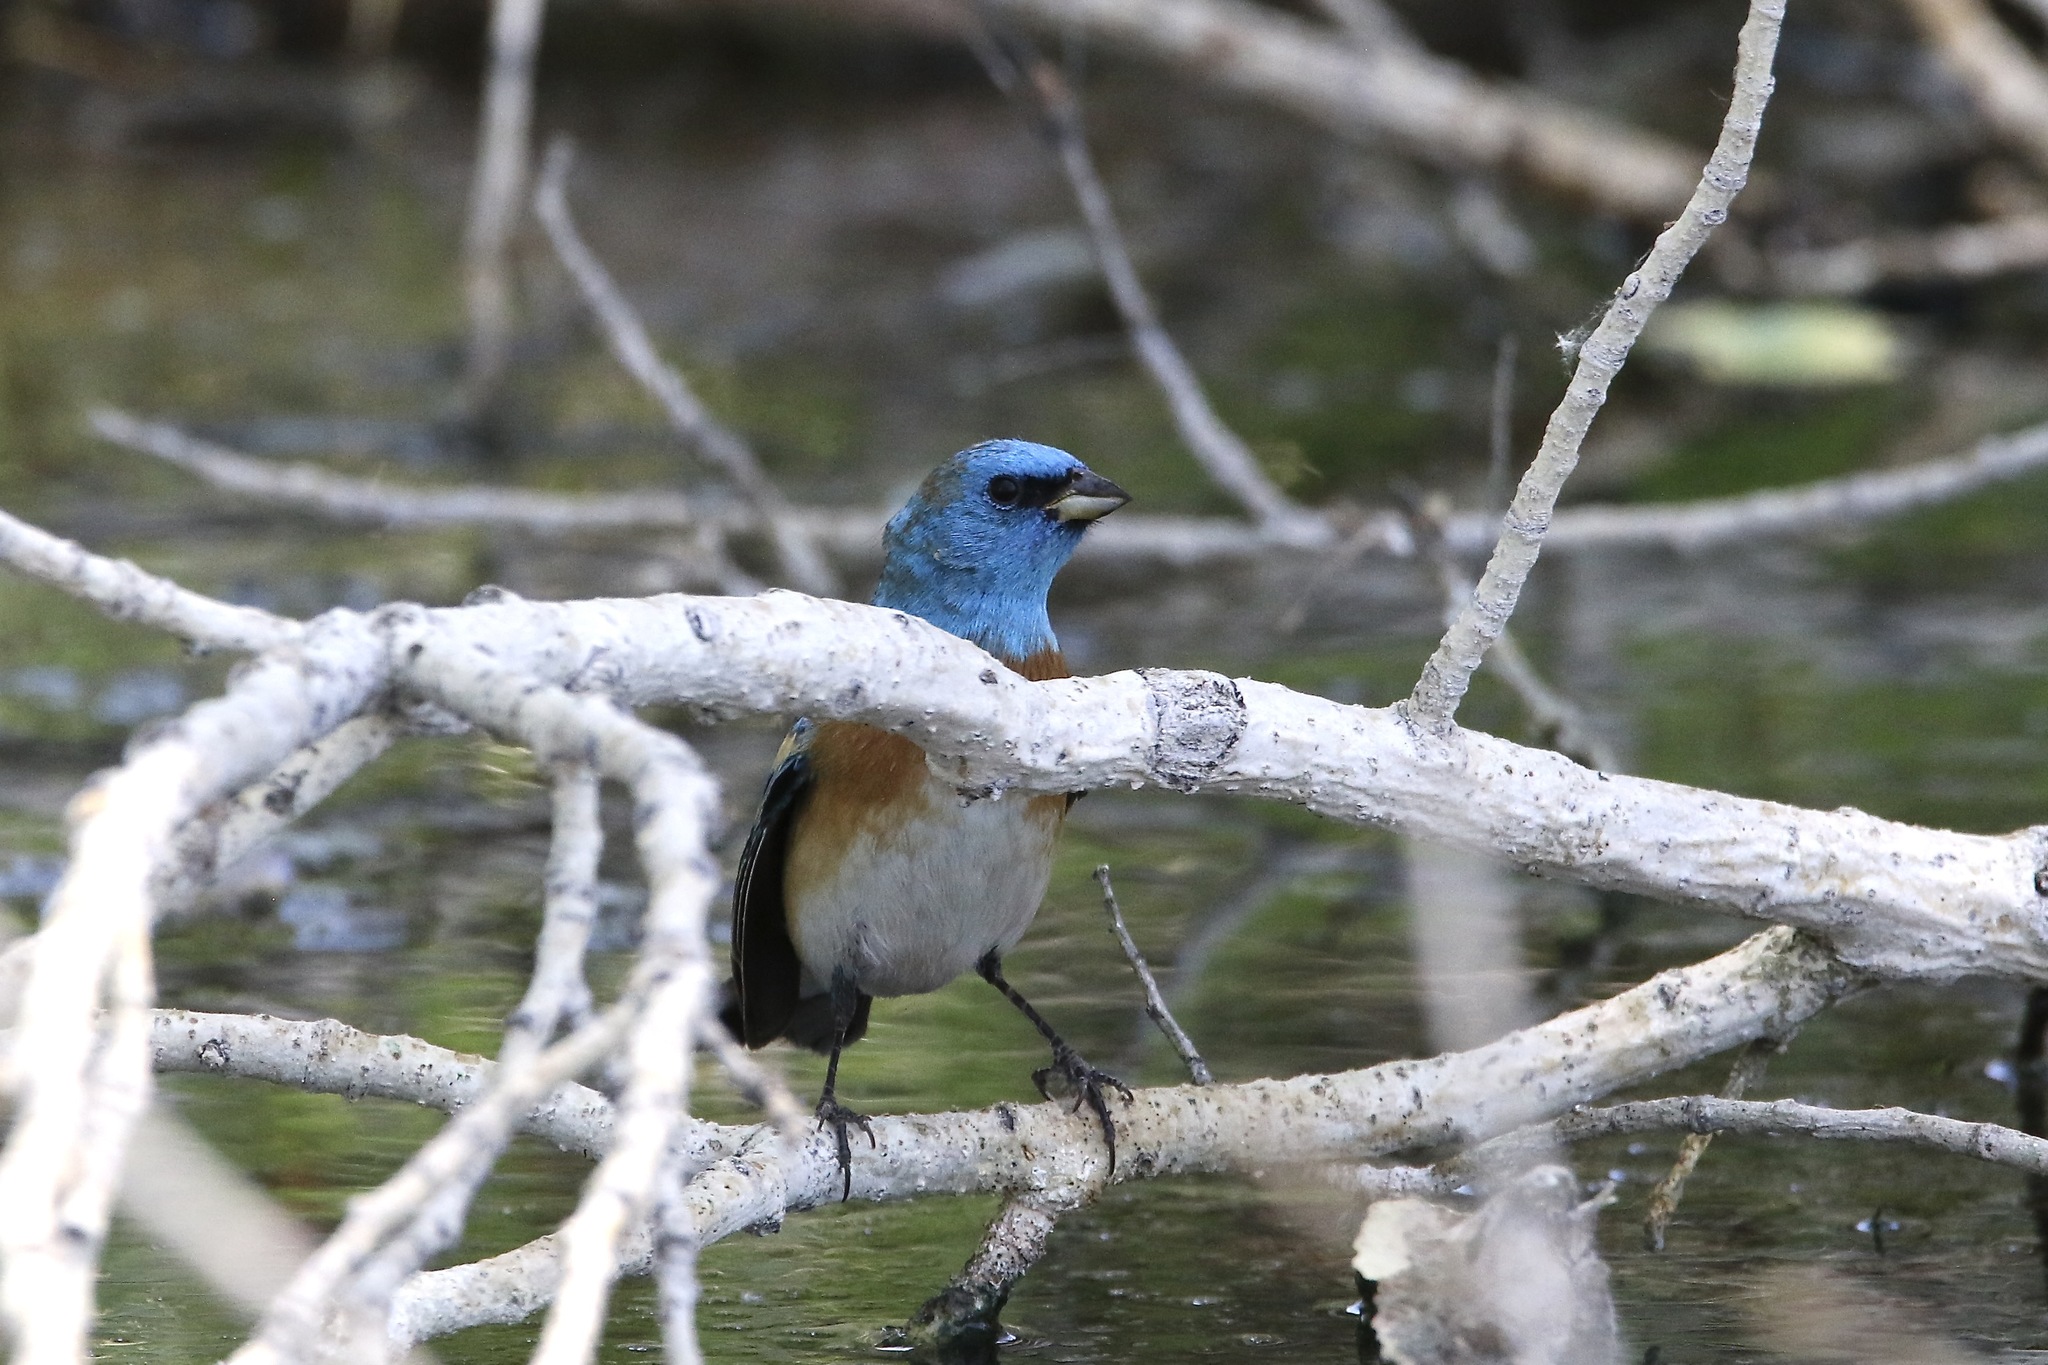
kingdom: Animalia
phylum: Chordata
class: Aves
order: Passeriformes
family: Cardinalidae
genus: Passerina
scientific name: Passerina amoena
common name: Lazuli bunting
